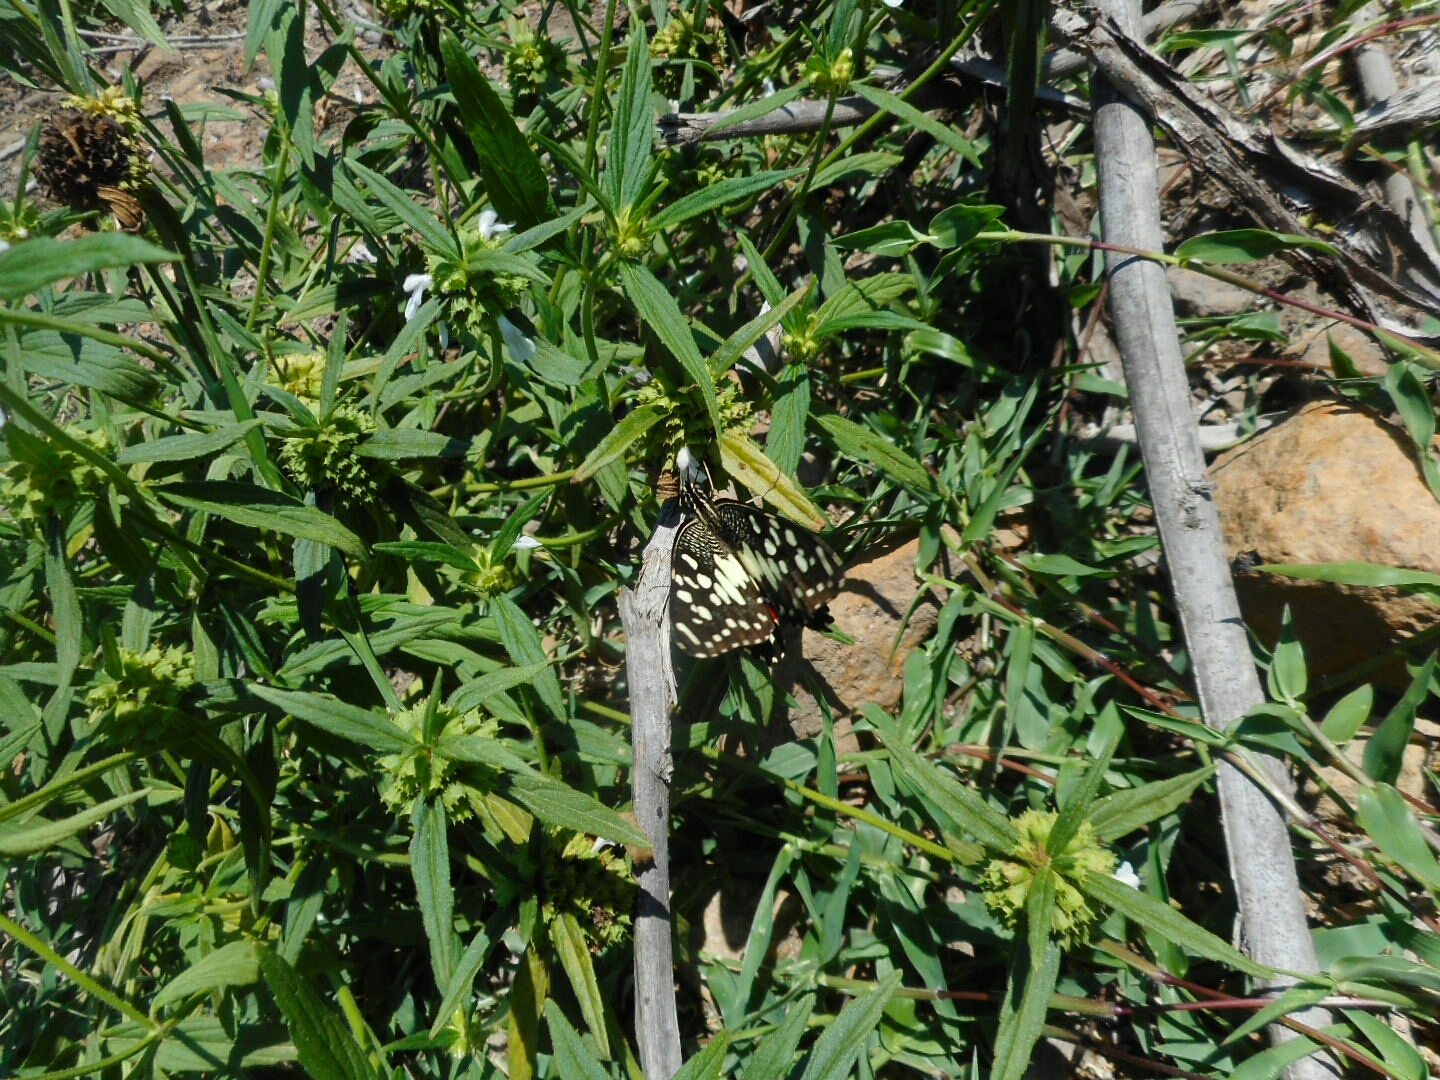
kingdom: Animalia
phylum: Arthropoda
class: Insecta
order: Lepidoptera
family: Papilionidae
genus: Papilio
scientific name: Papilio demoleus
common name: Lime butterfly
